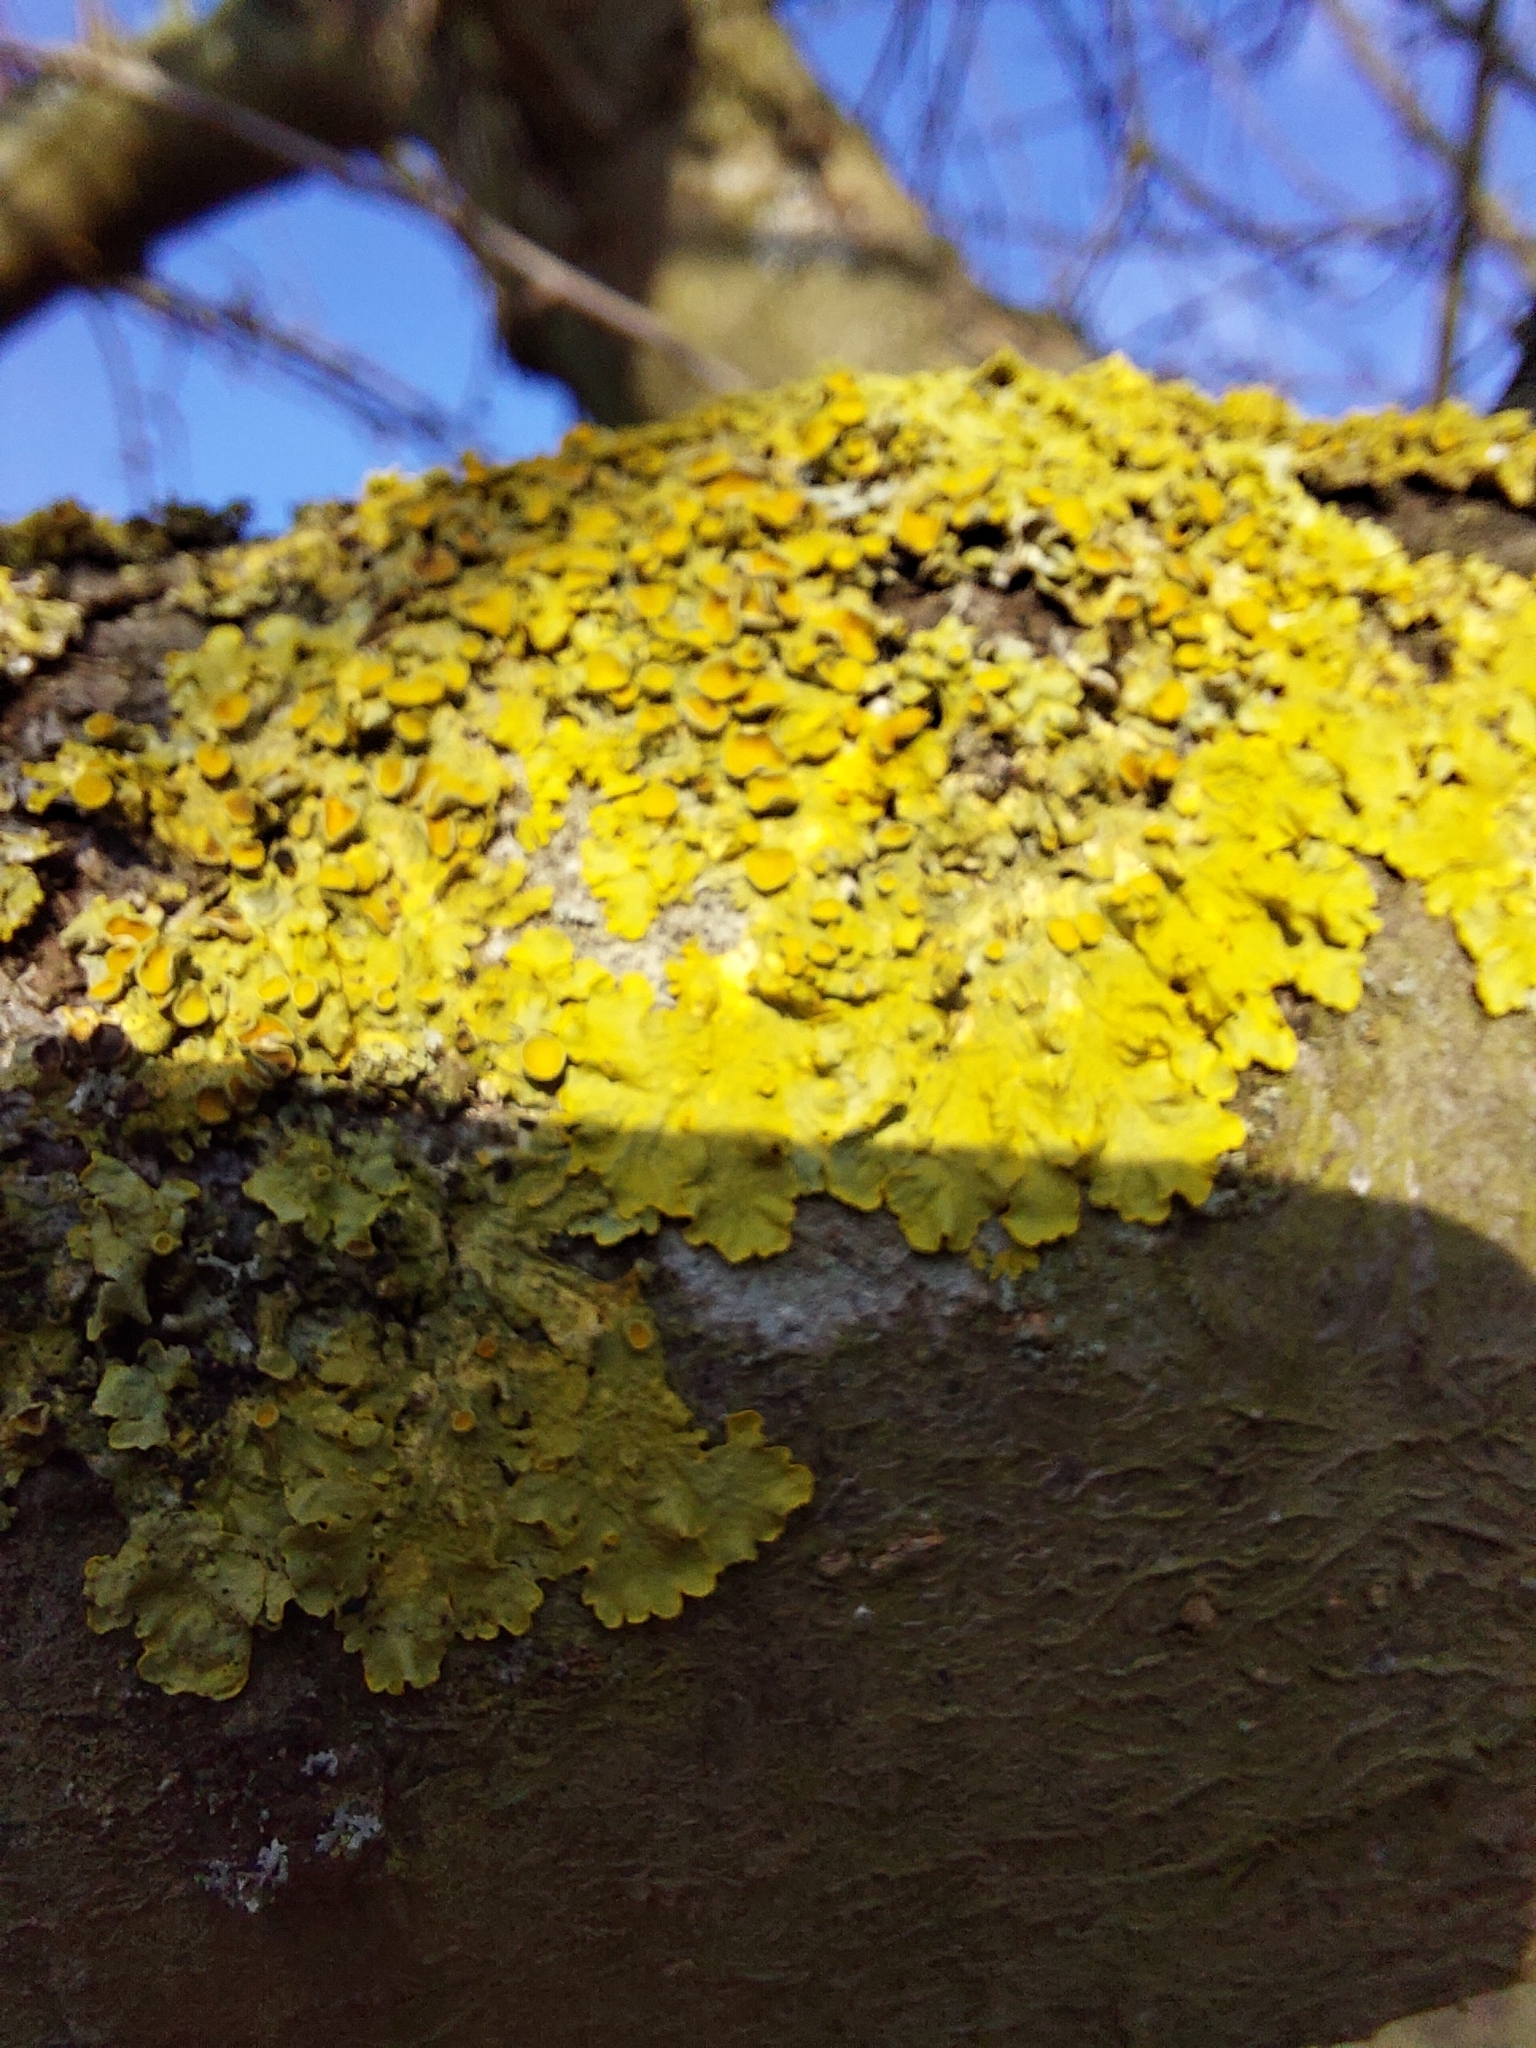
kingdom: Fungi
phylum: Ascomycota
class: Lecanoromycetes
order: Teloschistales
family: Teloschistaceae
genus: Xanthoria
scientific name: Xanthoria parietina
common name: Common orange lichen
